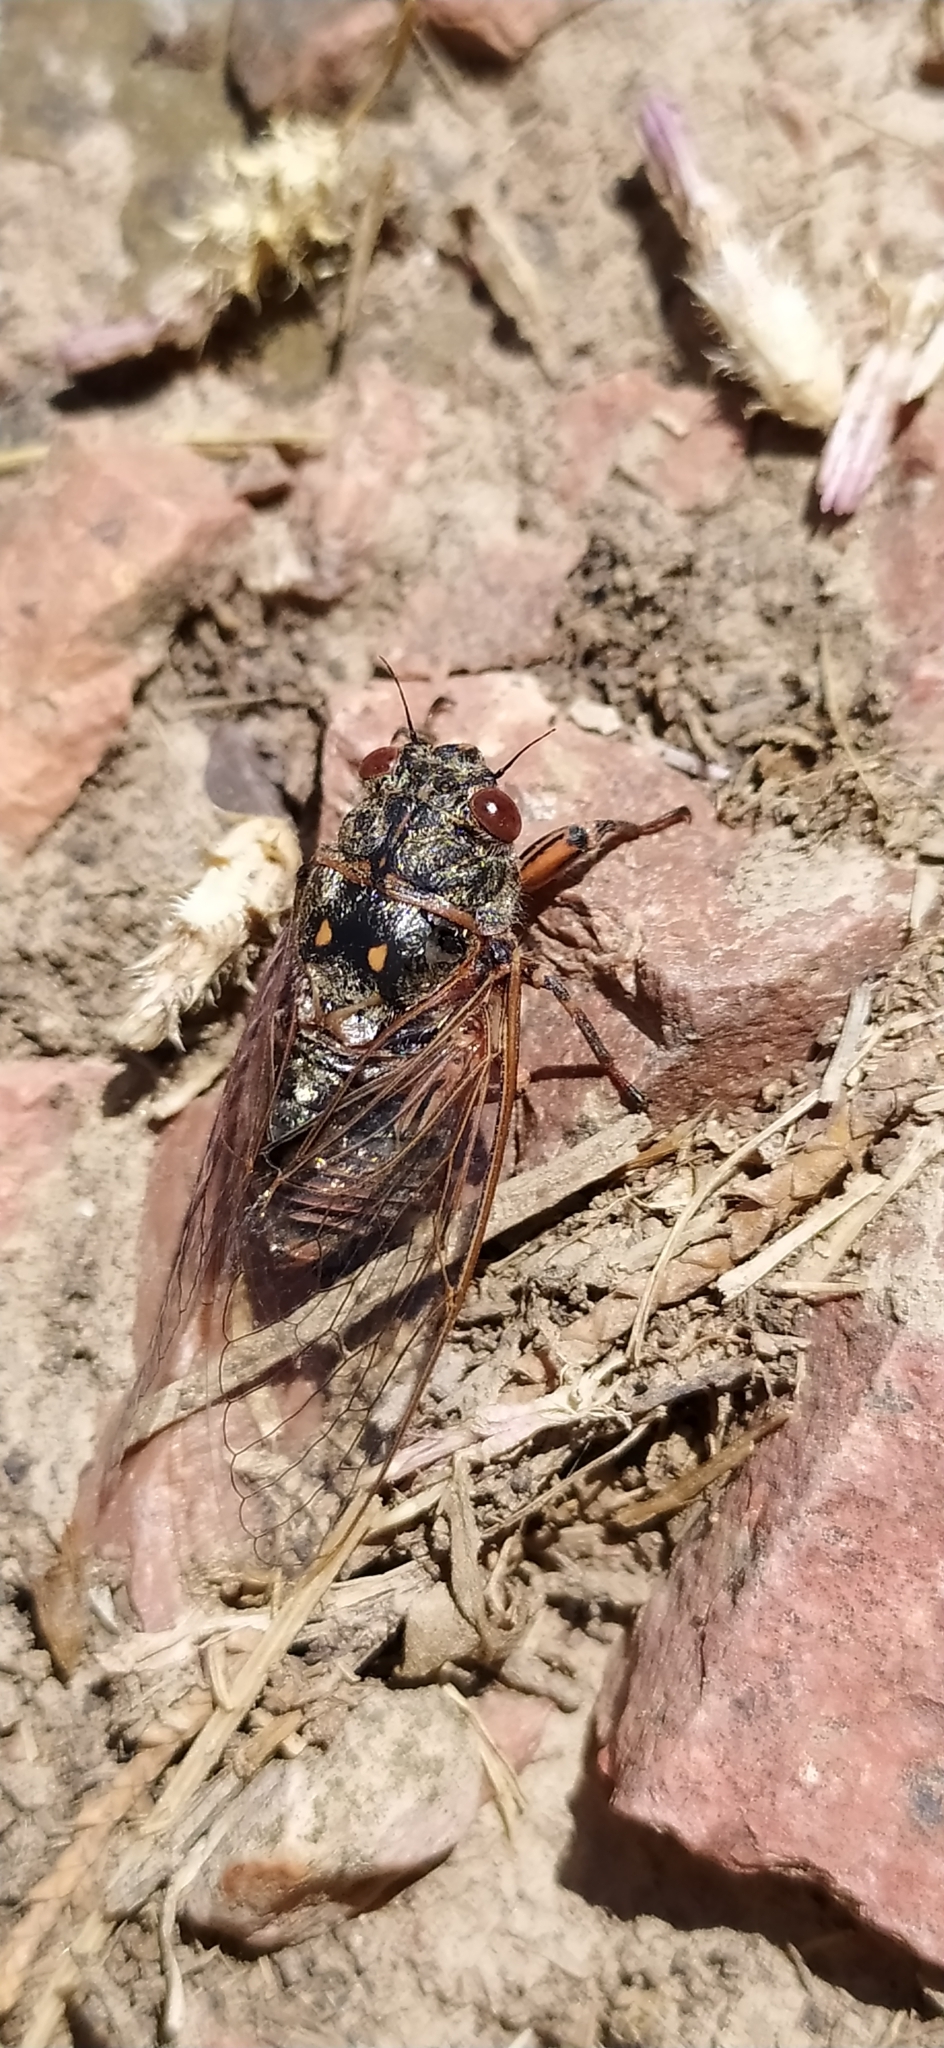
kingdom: Animalia
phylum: Arthropoda
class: Insecta
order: Hemiptera
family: Cicadidae
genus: Kosemia
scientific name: Kosemia yezoensis
